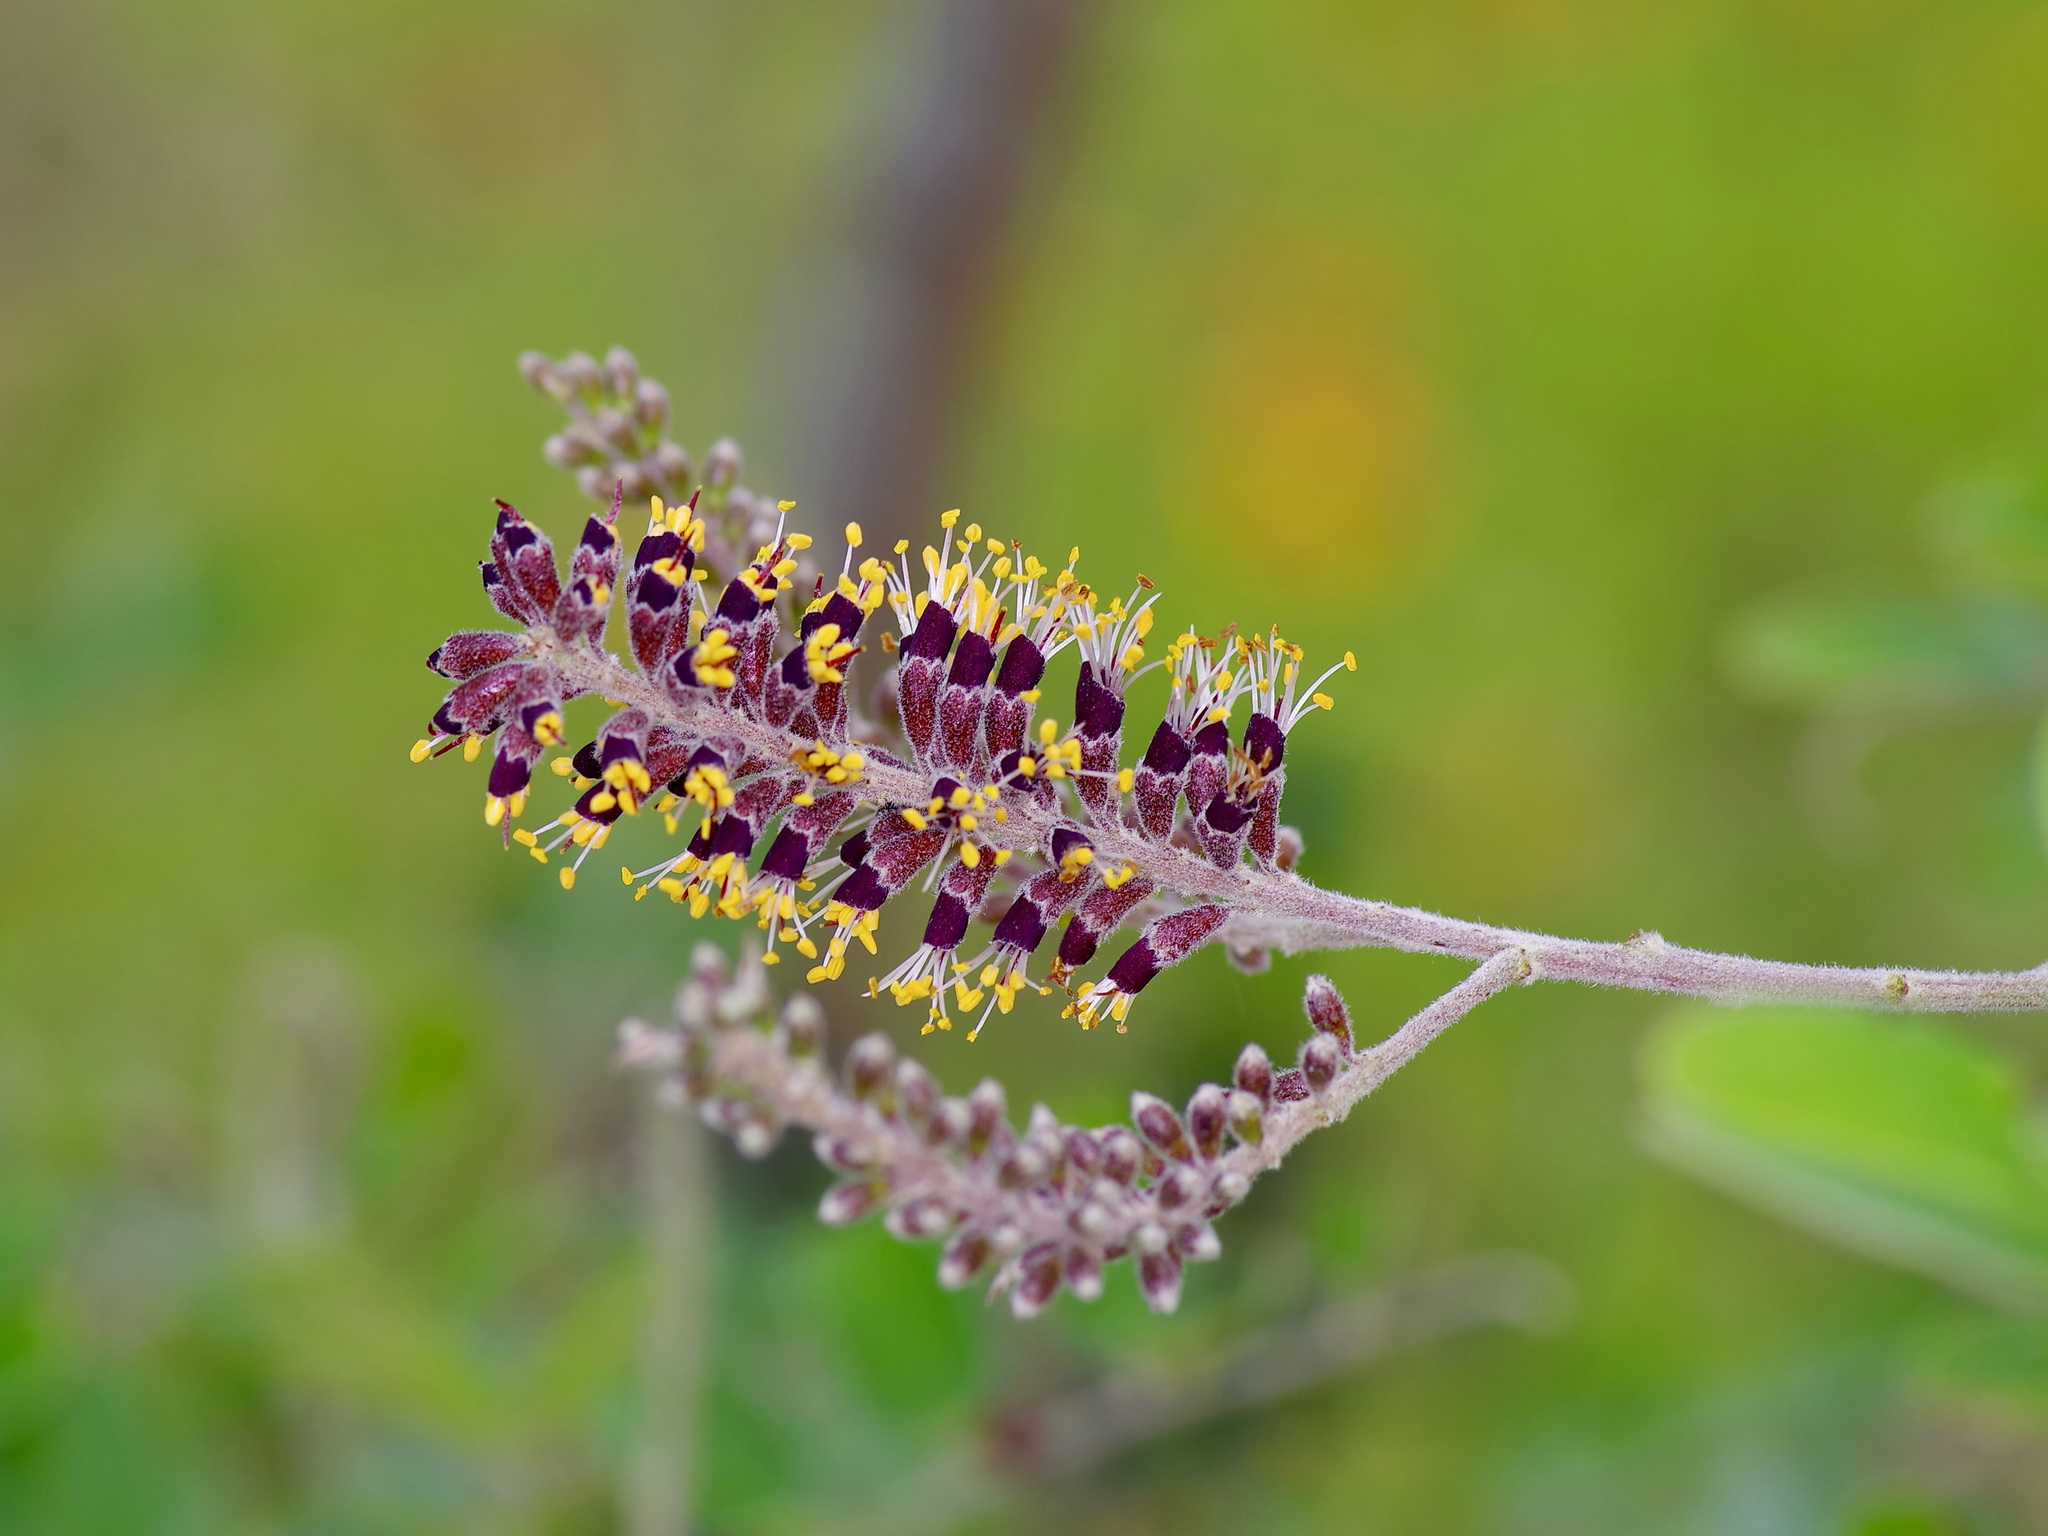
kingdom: Plantae
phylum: Tracheophyta
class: Magnoliopsida
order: Fabales
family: Fabaceae
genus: Amorpha
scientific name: Amorpha fruticosa
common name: False indigo
